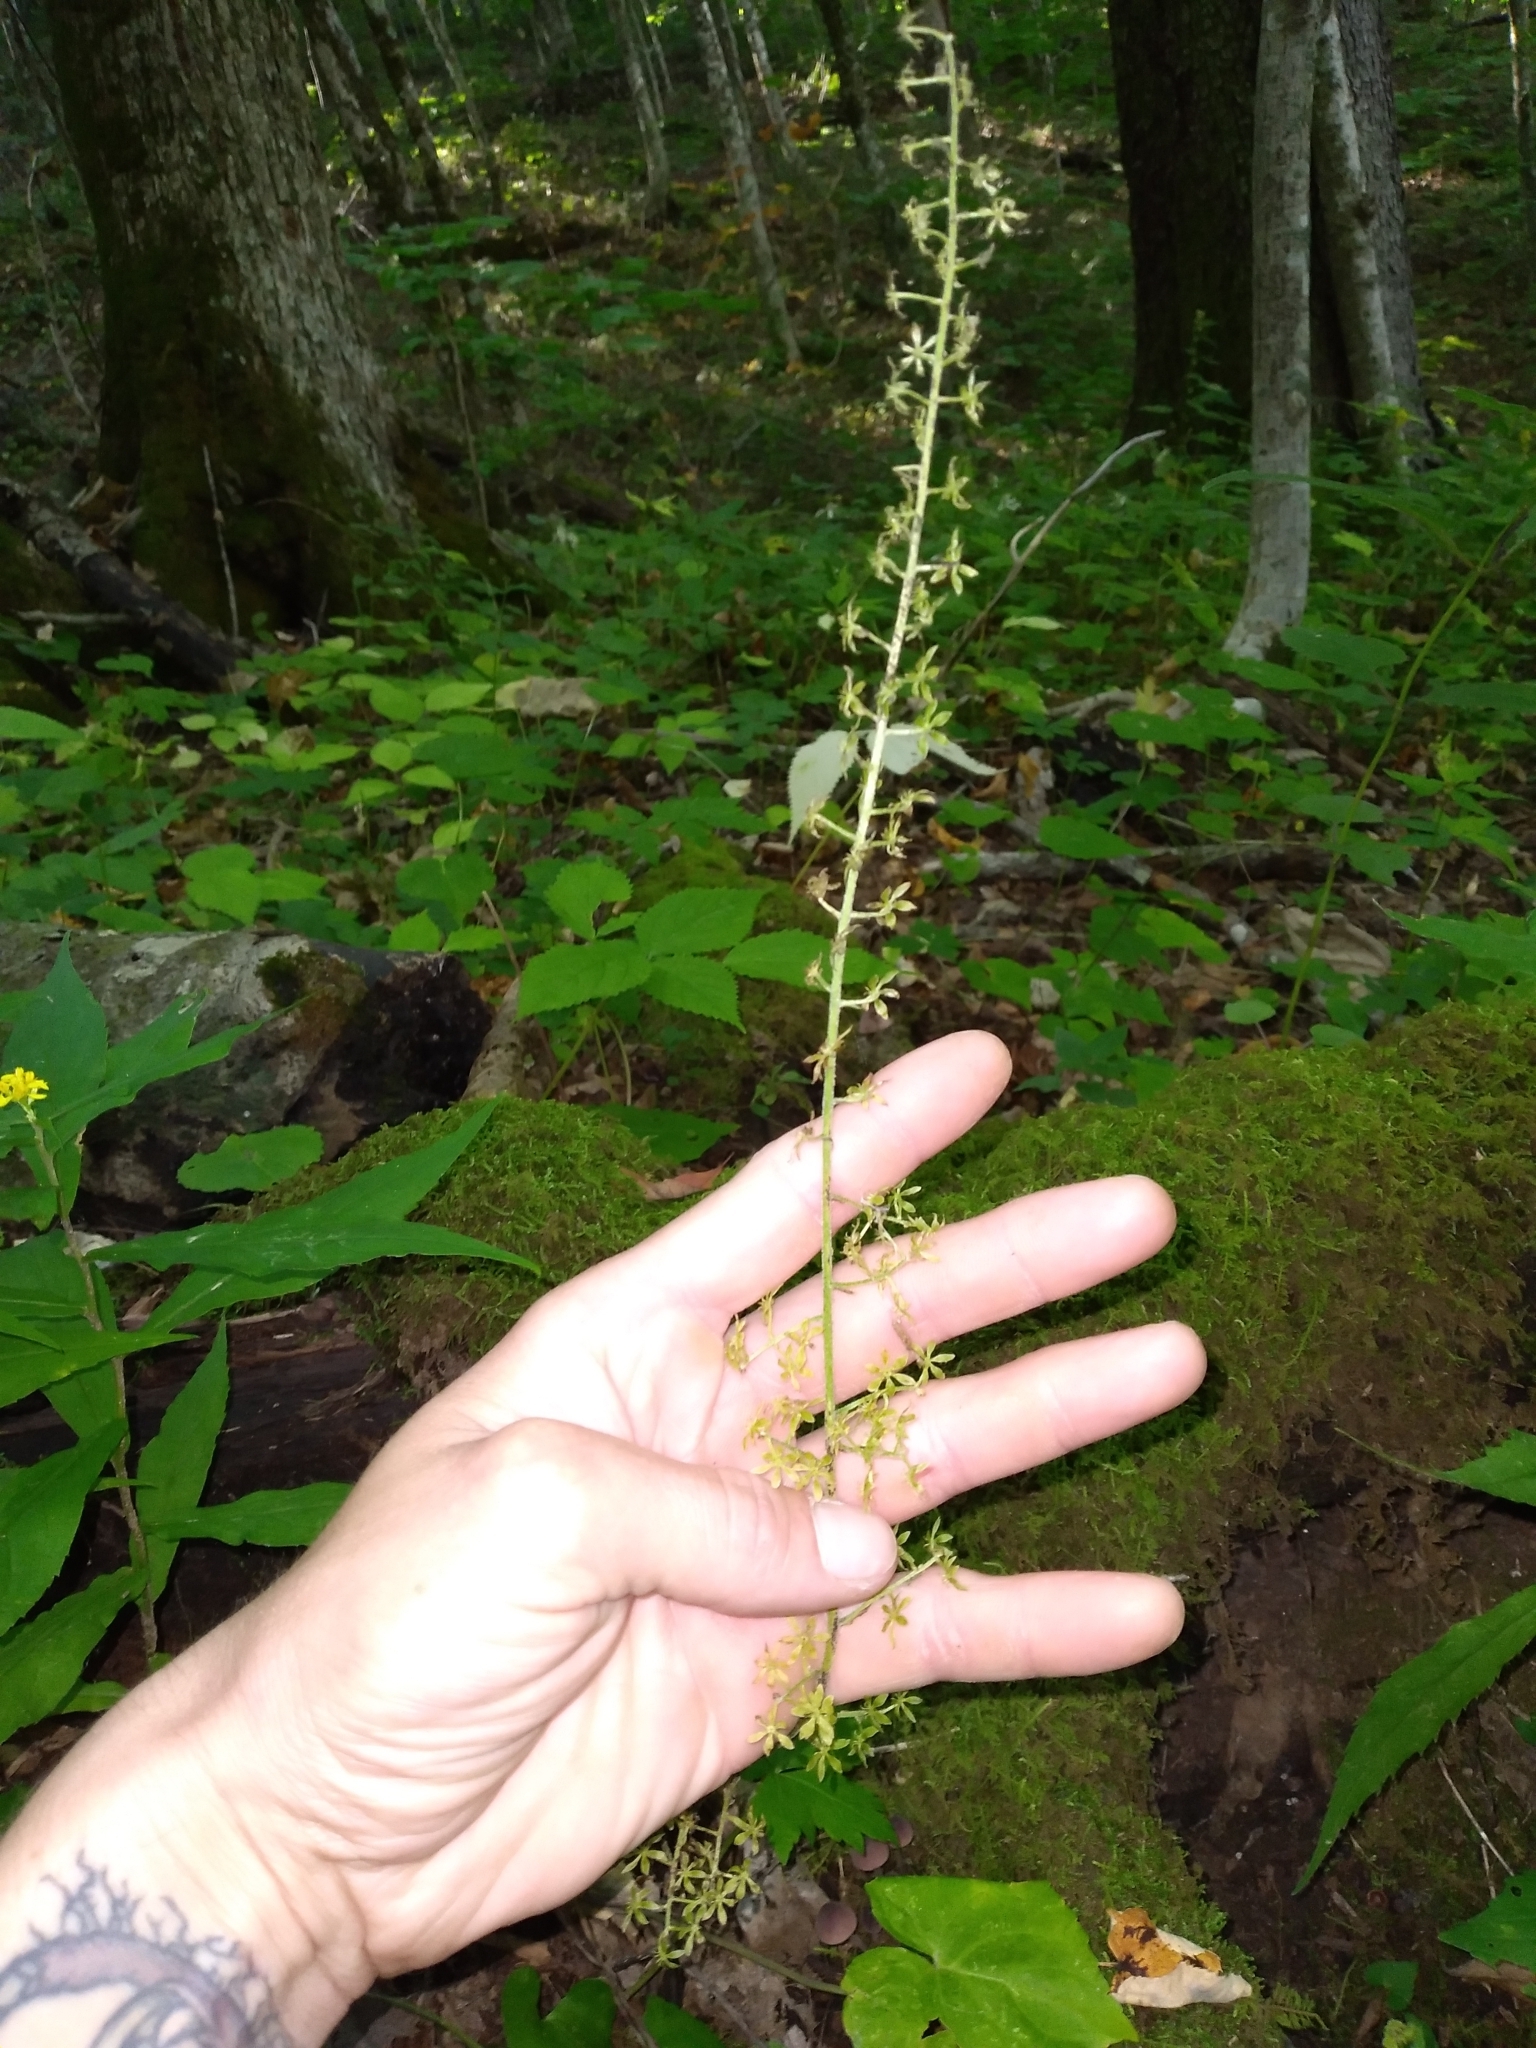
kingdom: Plantae
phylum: Tracheophyta
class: Liliopsida
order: Liliales
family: Melanthiaceae
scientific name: Melanthiaceae
